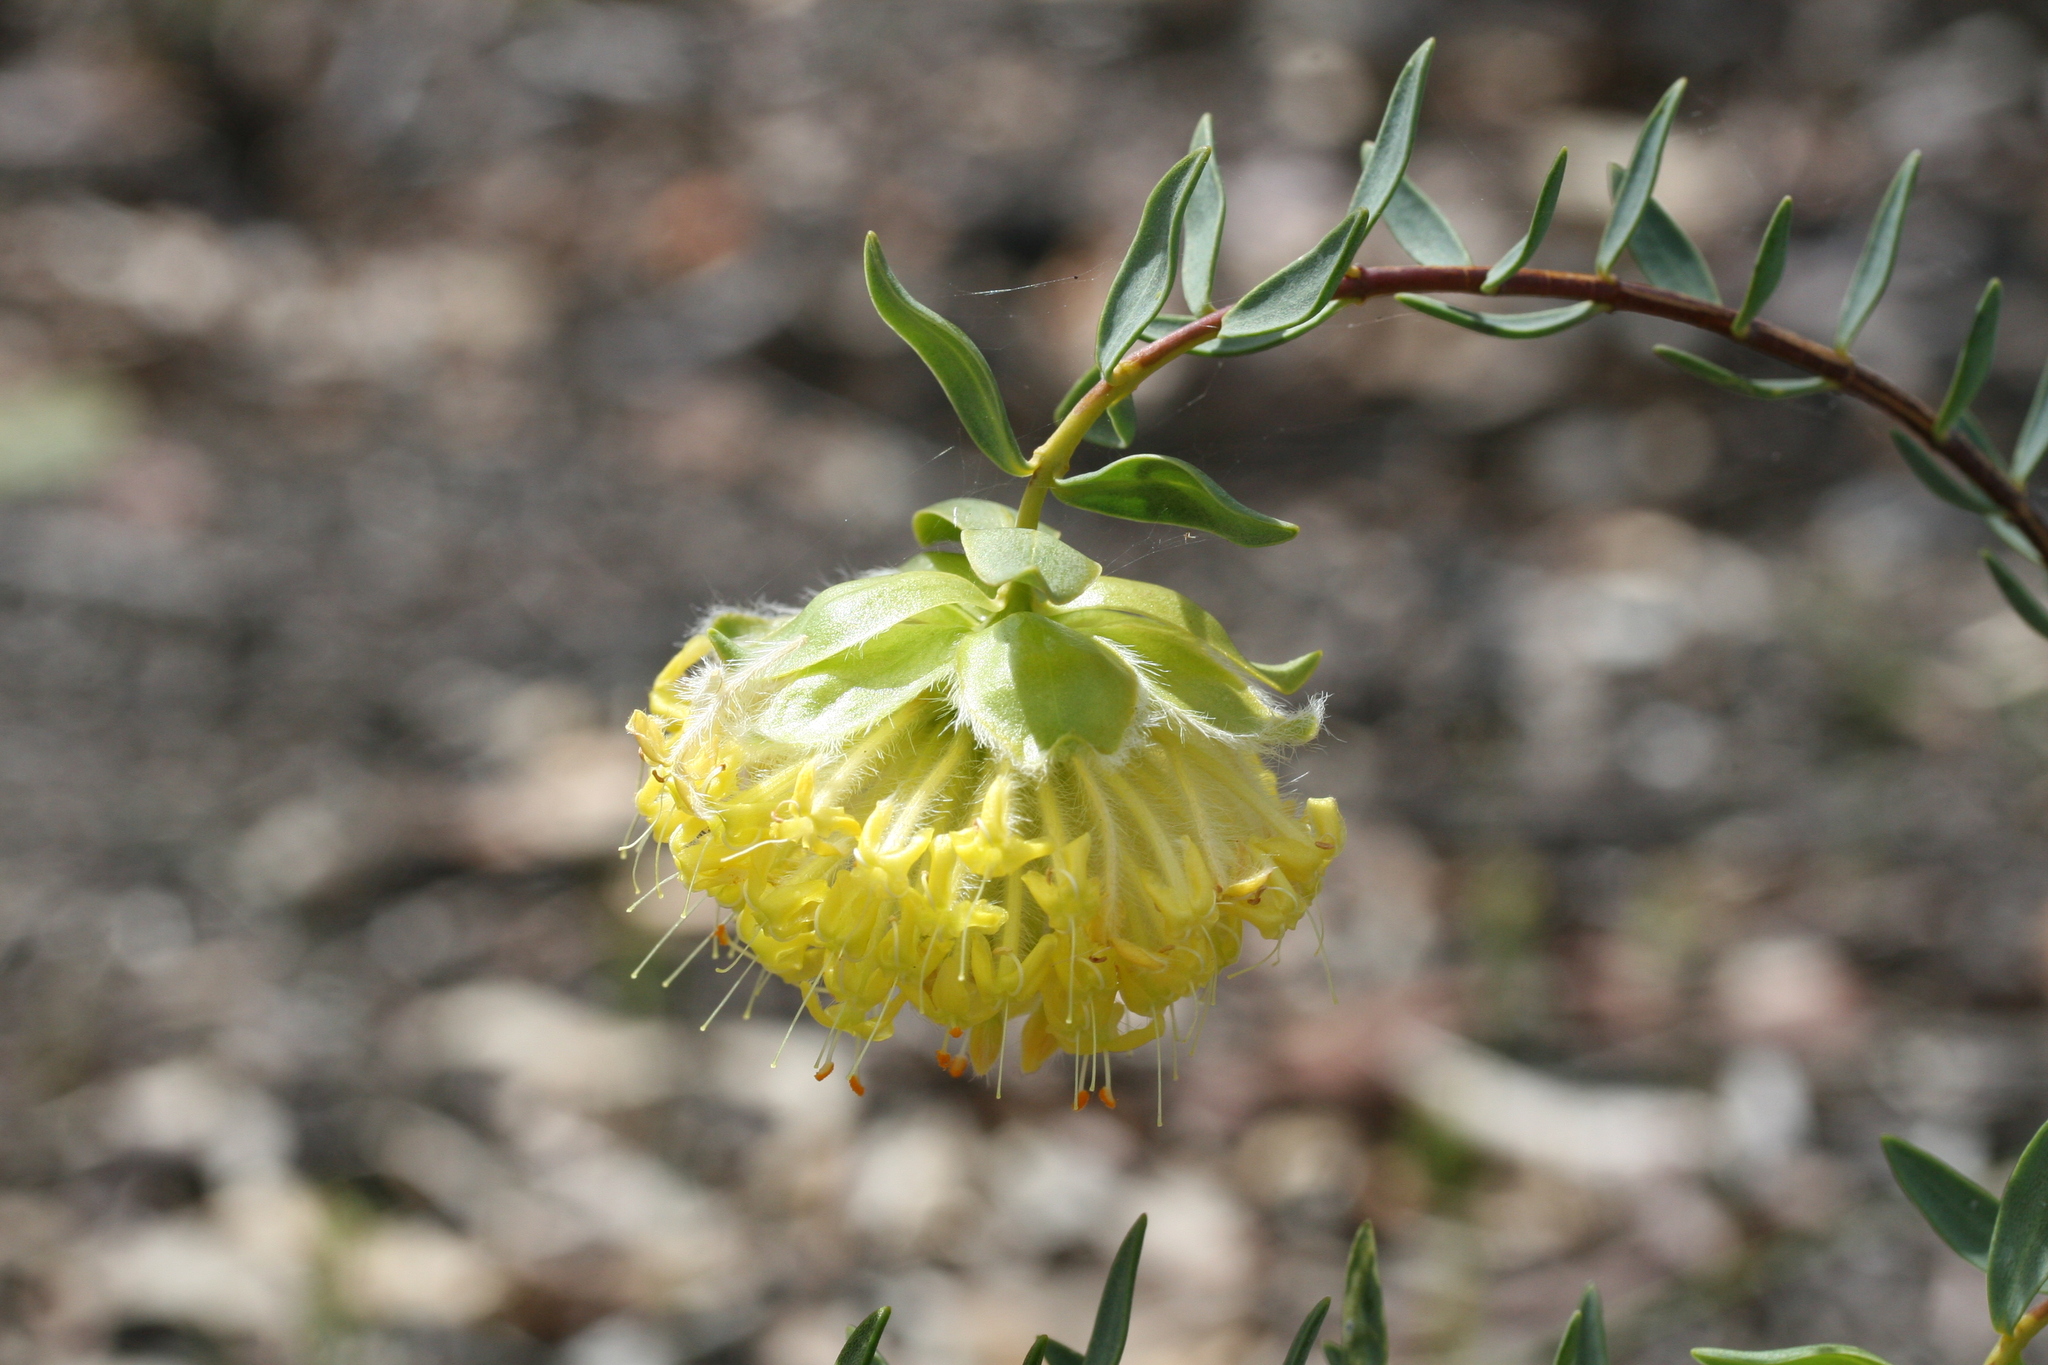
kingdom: Plantae
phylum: Tracheophyta
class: Magnoliopsida
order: Malvales
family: Thymelaeaceae
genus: Pimelea
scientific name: Pimelea suaveolens
